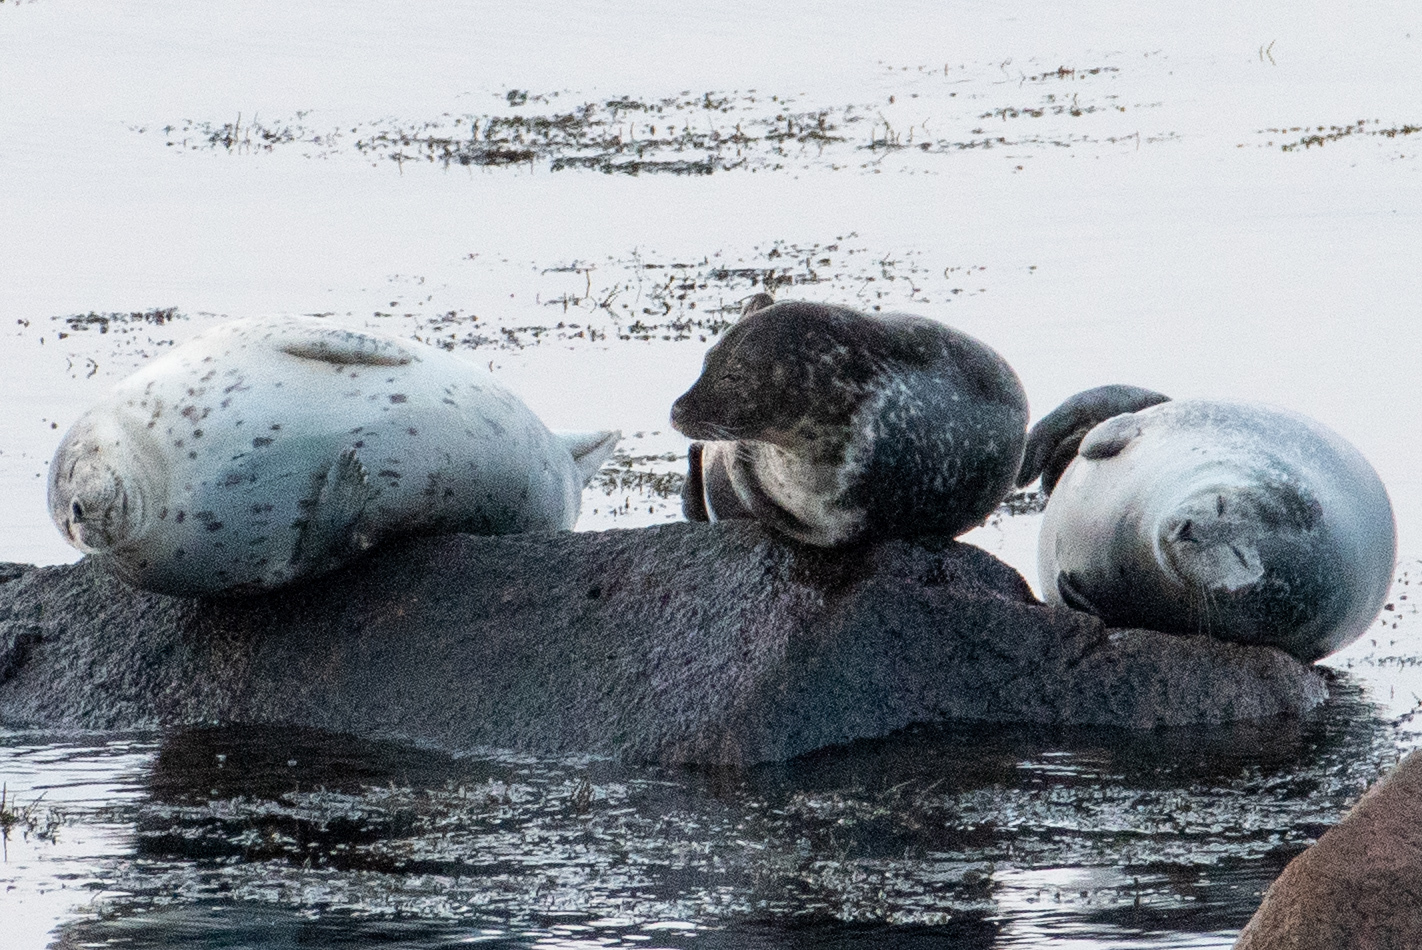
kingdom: Animalia
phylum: Chordata
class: Mammalia
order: Carnivora
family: Phocidae
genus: Phoca
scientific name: Phoca vitulina
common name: Harbor seal
